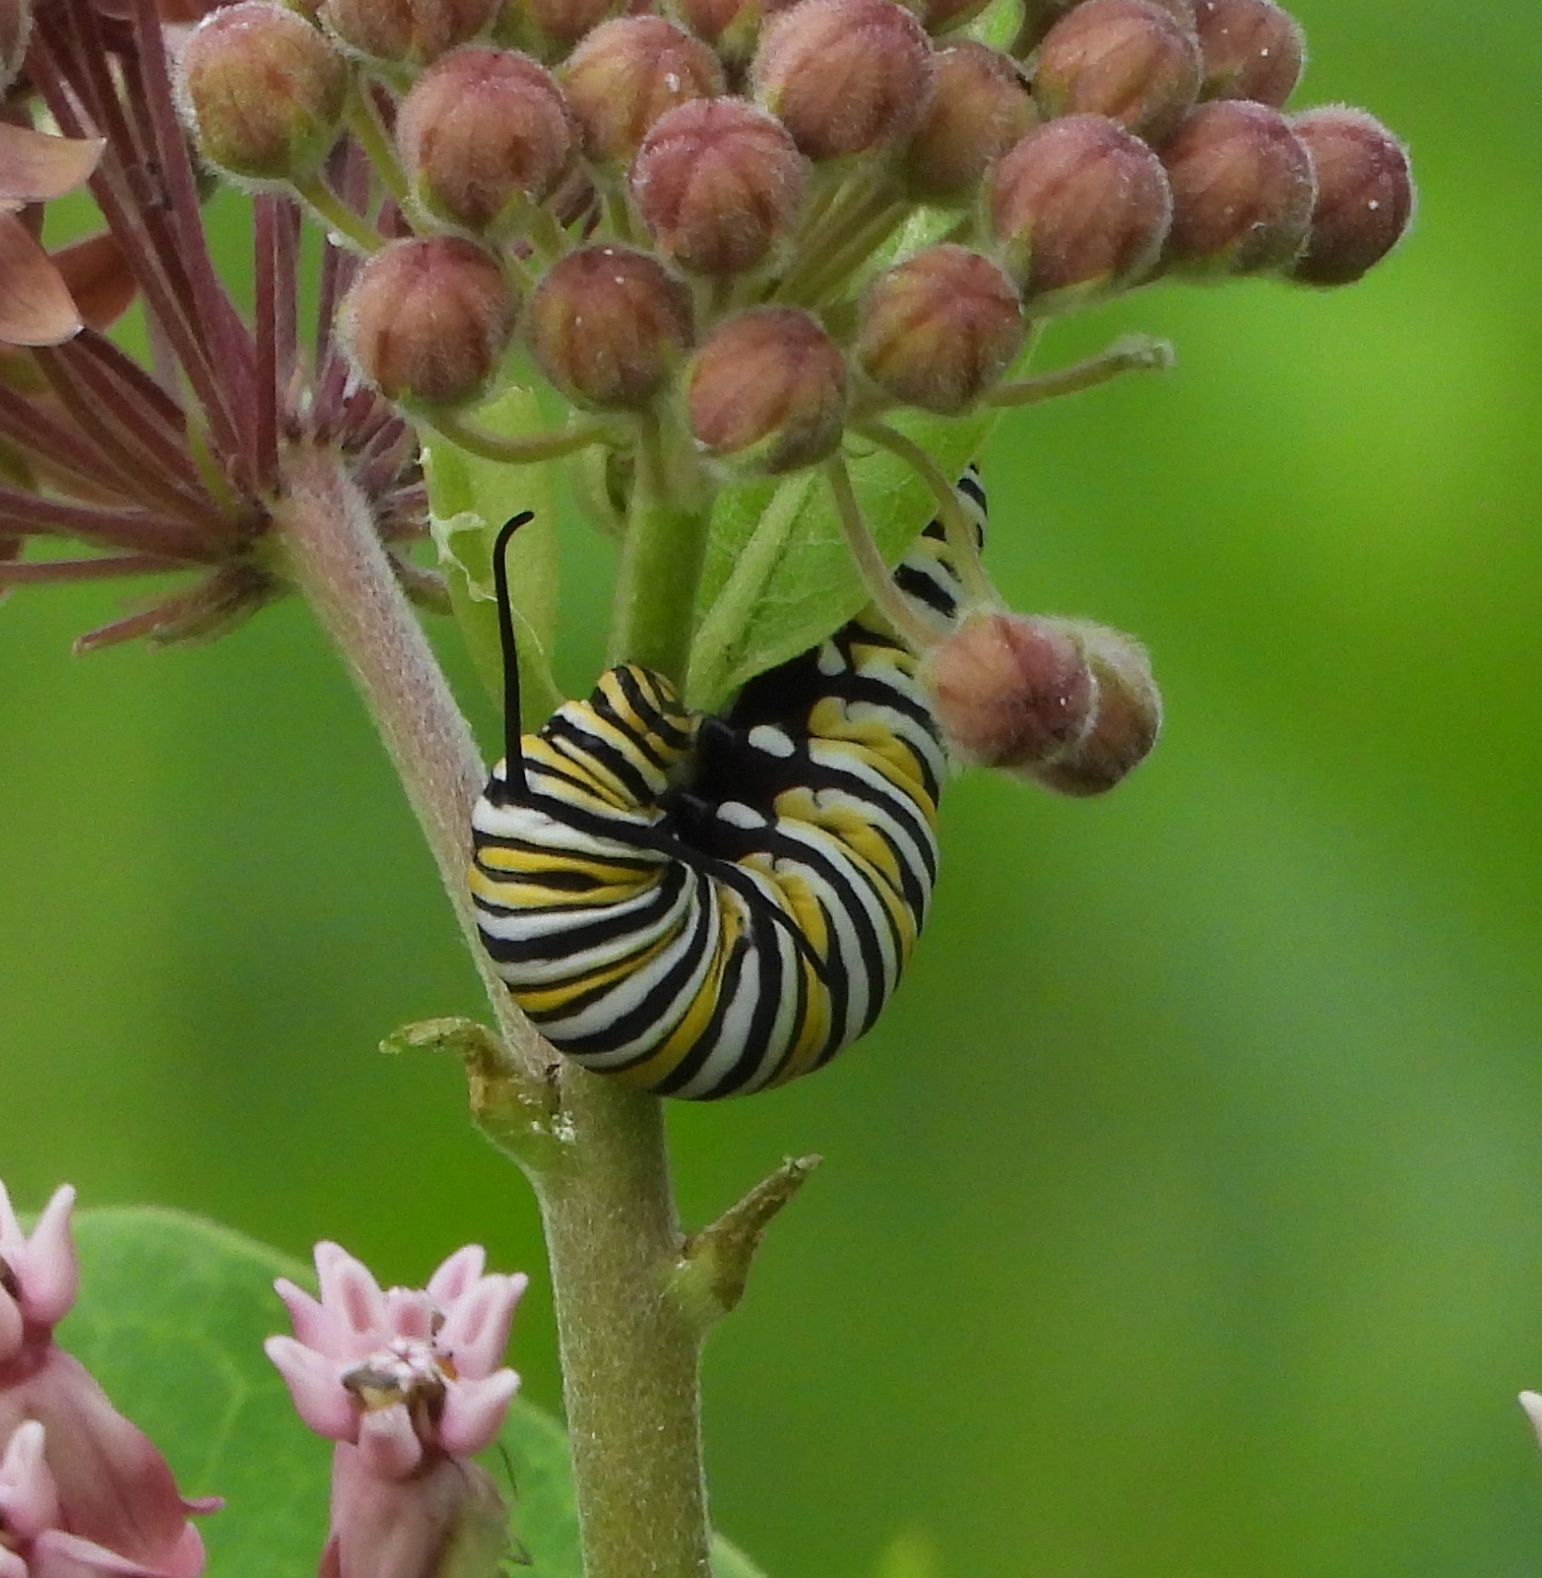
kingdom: Animalia
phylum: Arthropoda
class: Insecta
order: Lepidoptera
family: Nymphalidae
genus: Danaus
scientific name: Danaus plexippus
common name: Monarch
